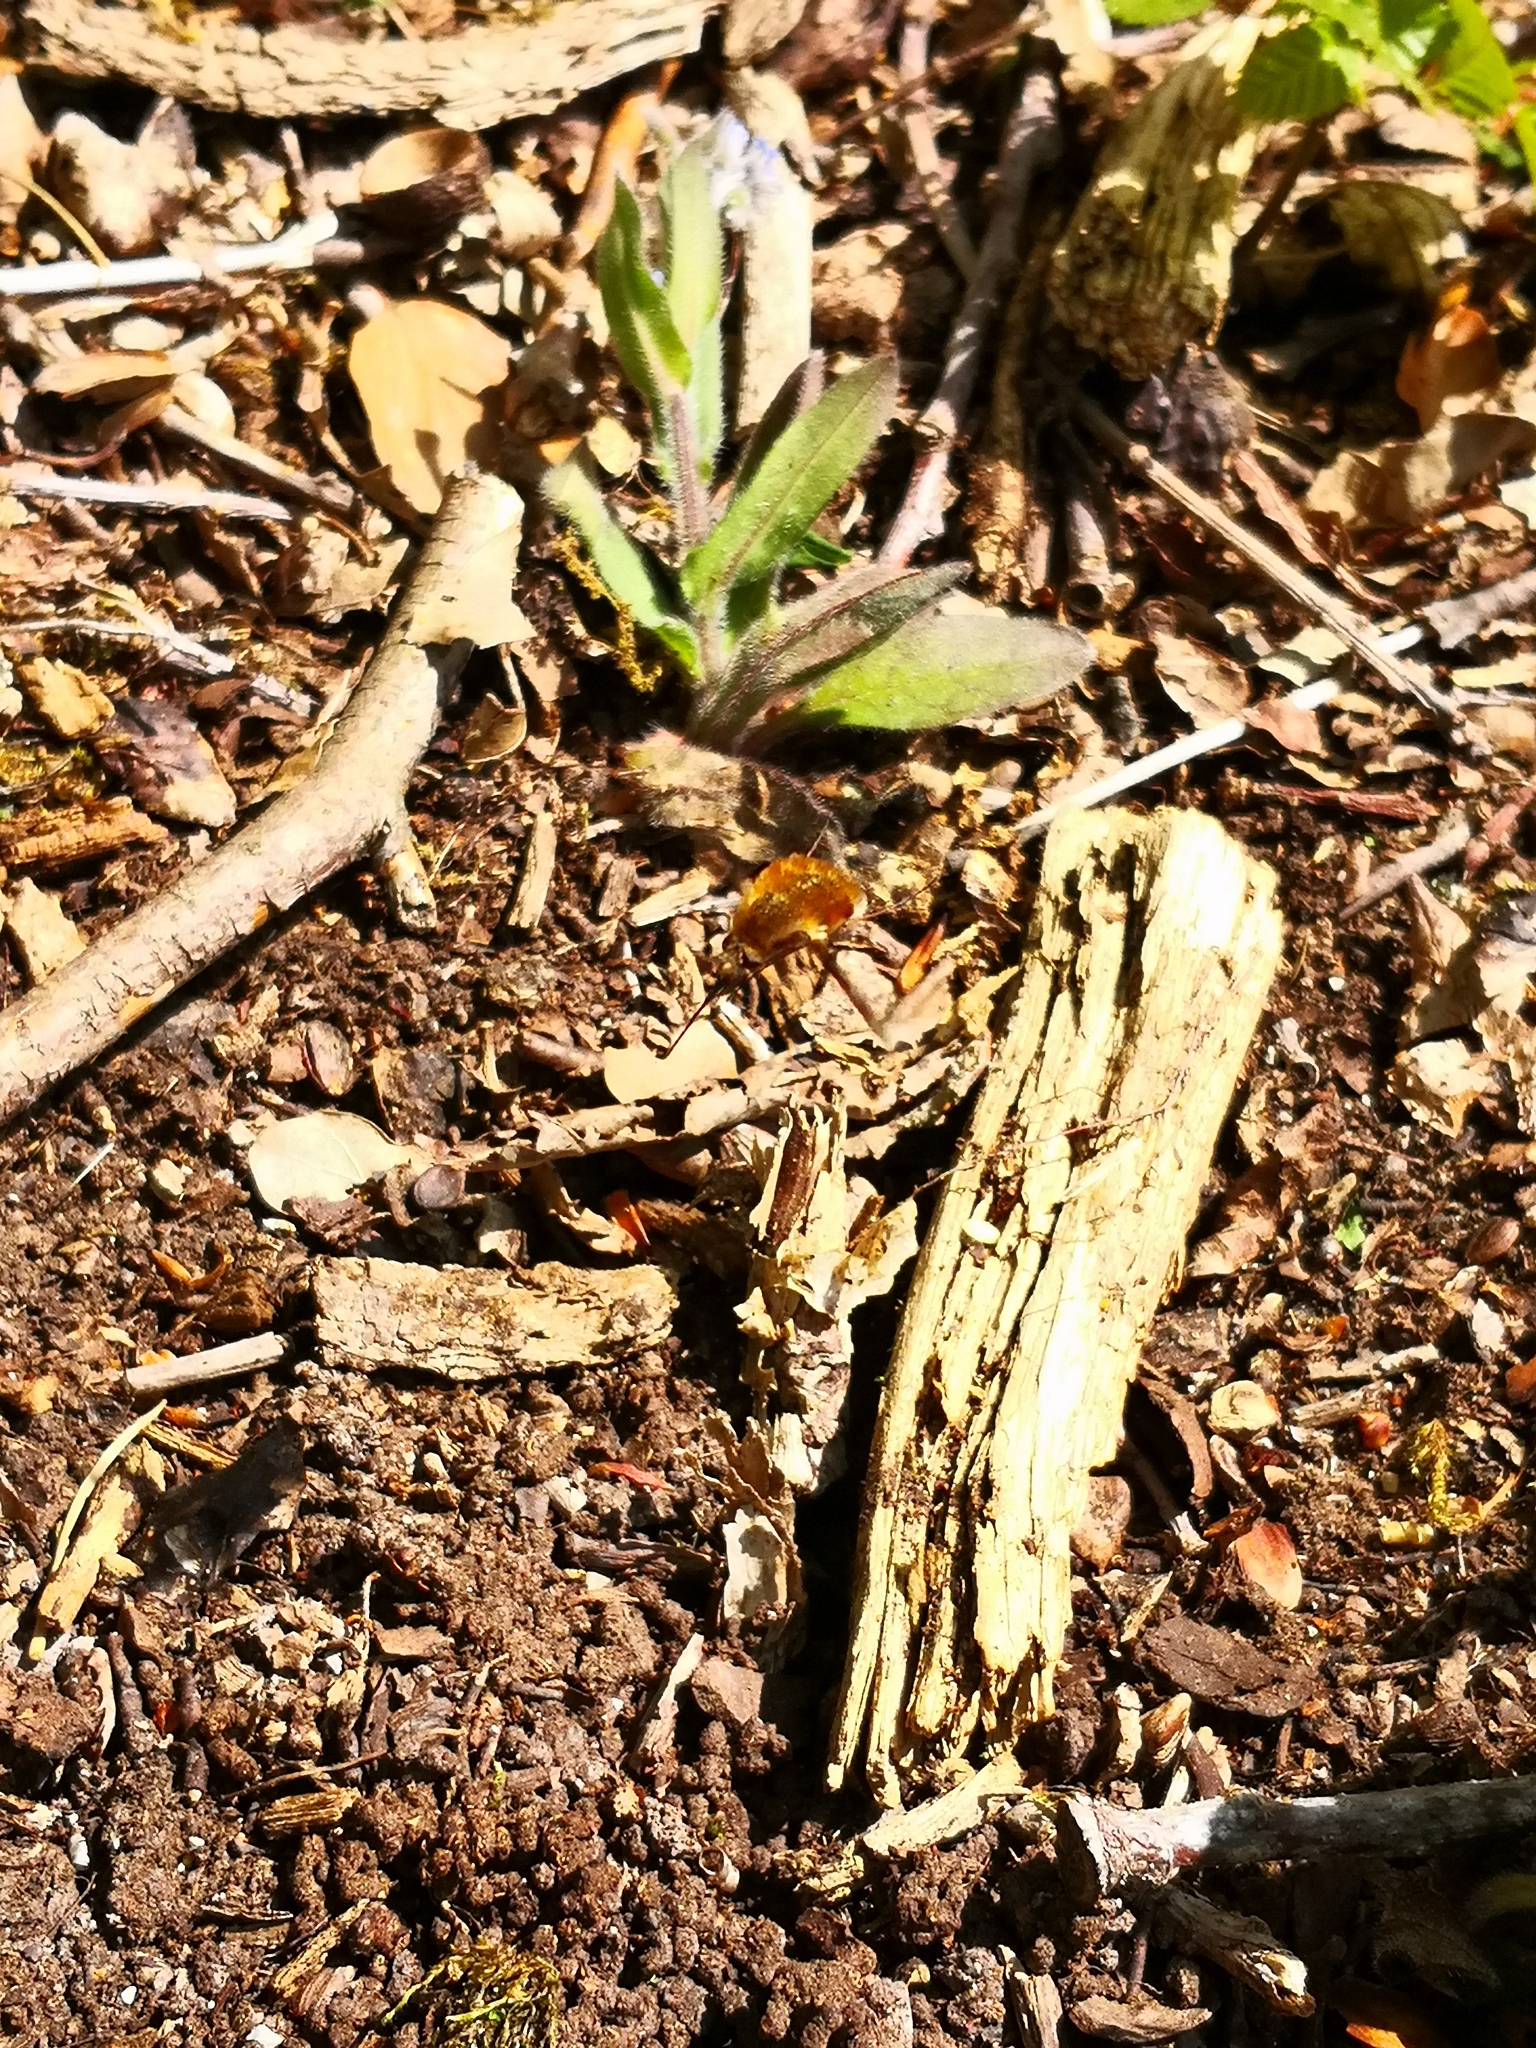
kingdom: Animalia
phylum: Arthropoda
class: Insecta
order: Diptera
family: Bombyliidae
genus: Bombylius
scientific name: Bombylius major
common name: Bee fly
